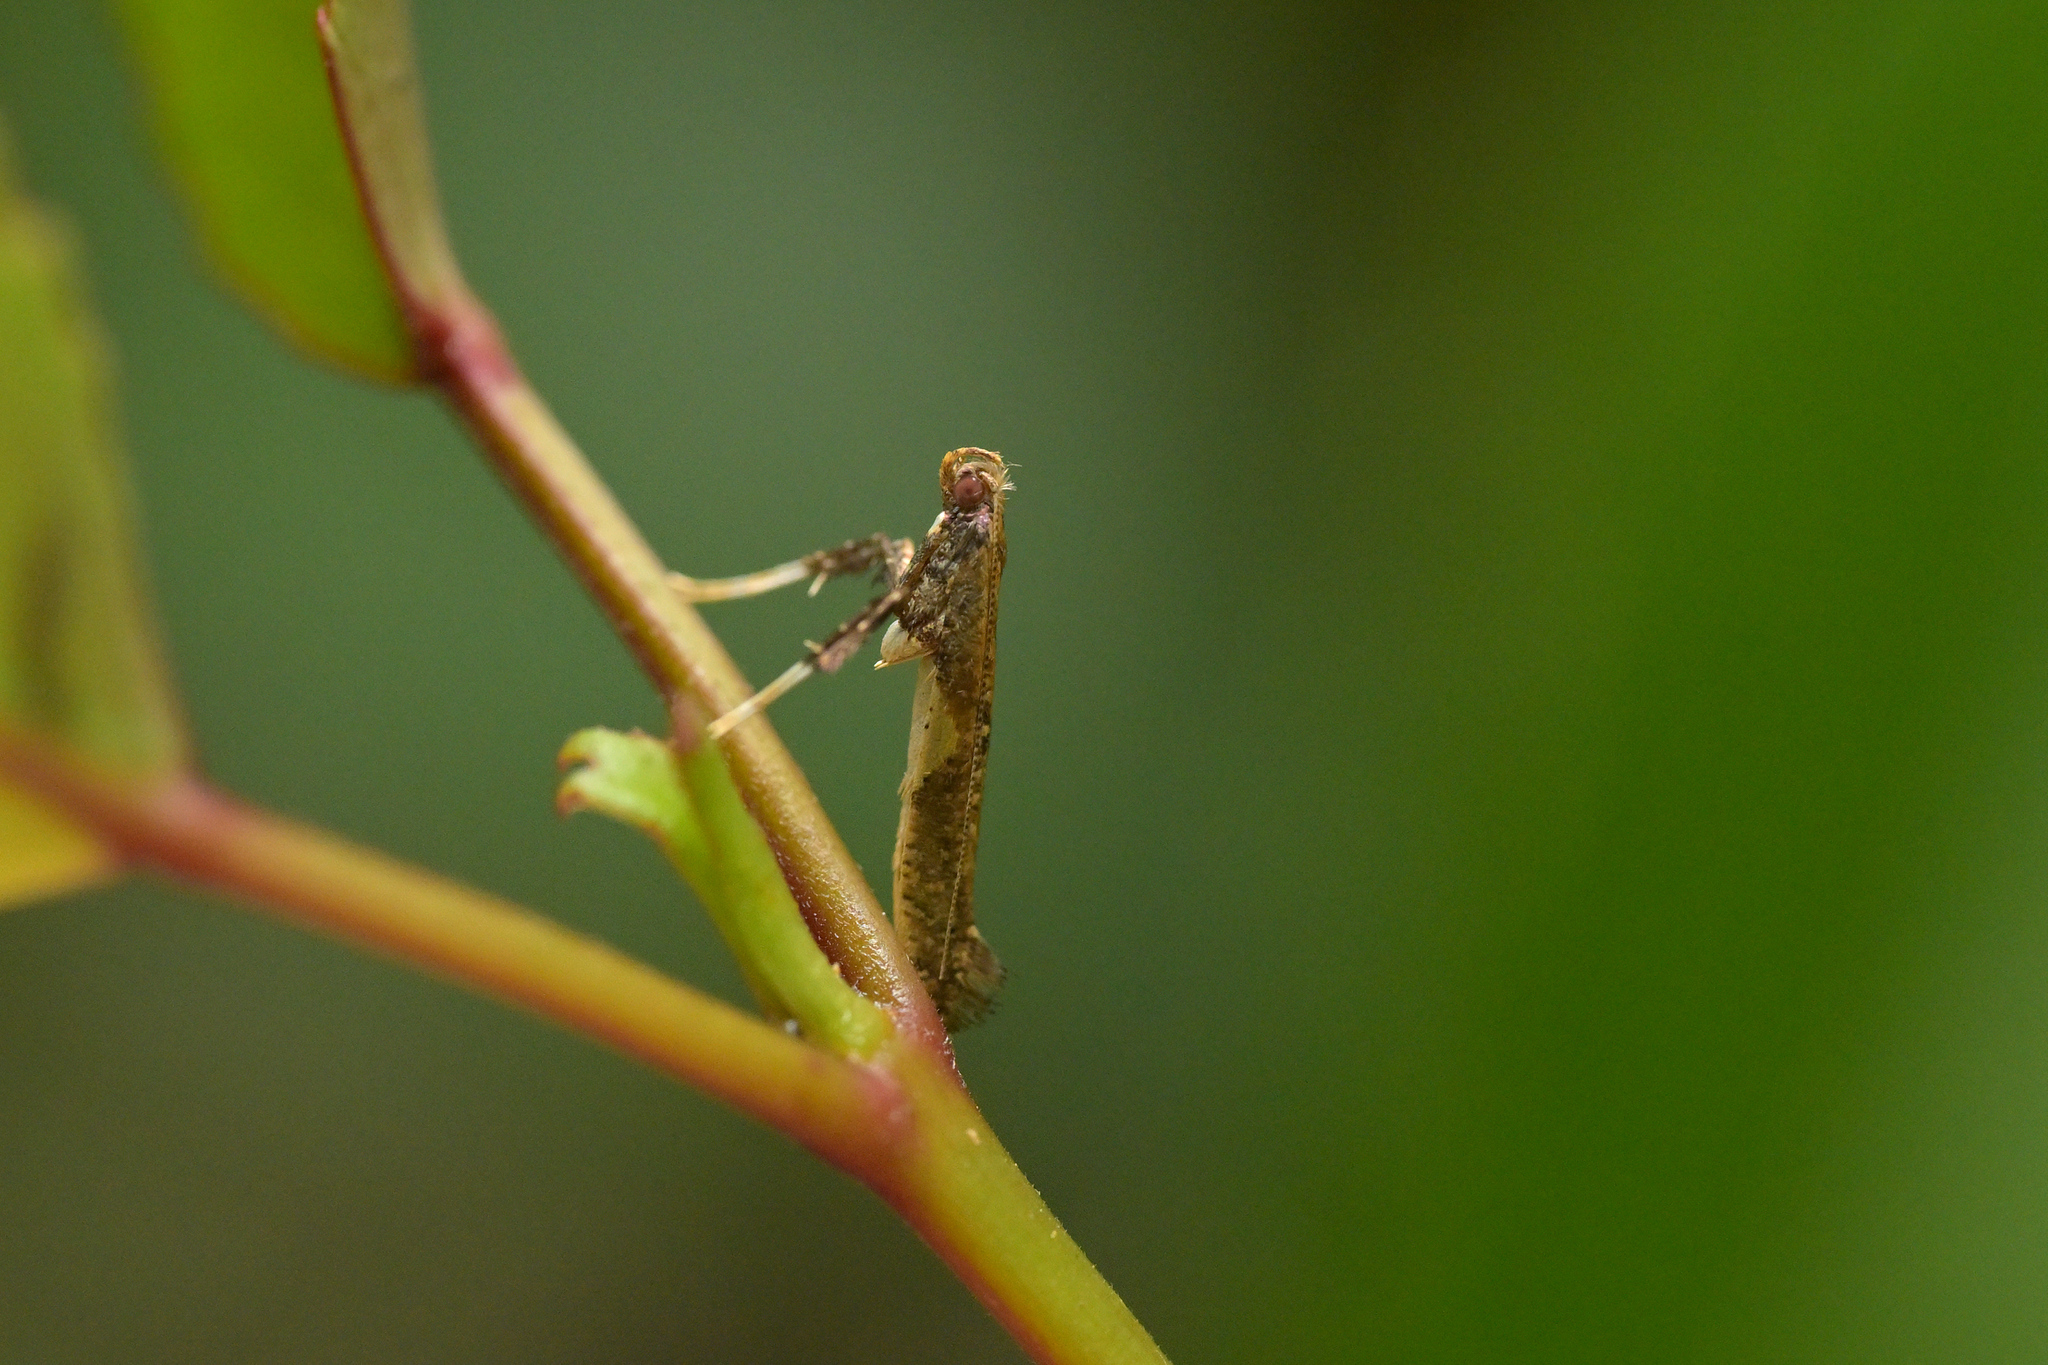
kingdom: Animalia
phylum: Arthropoda
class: Insecta
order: Lepidoptera
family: Gracillariidae
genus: Caloptilia
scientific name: Caloptilia chalcodelta
